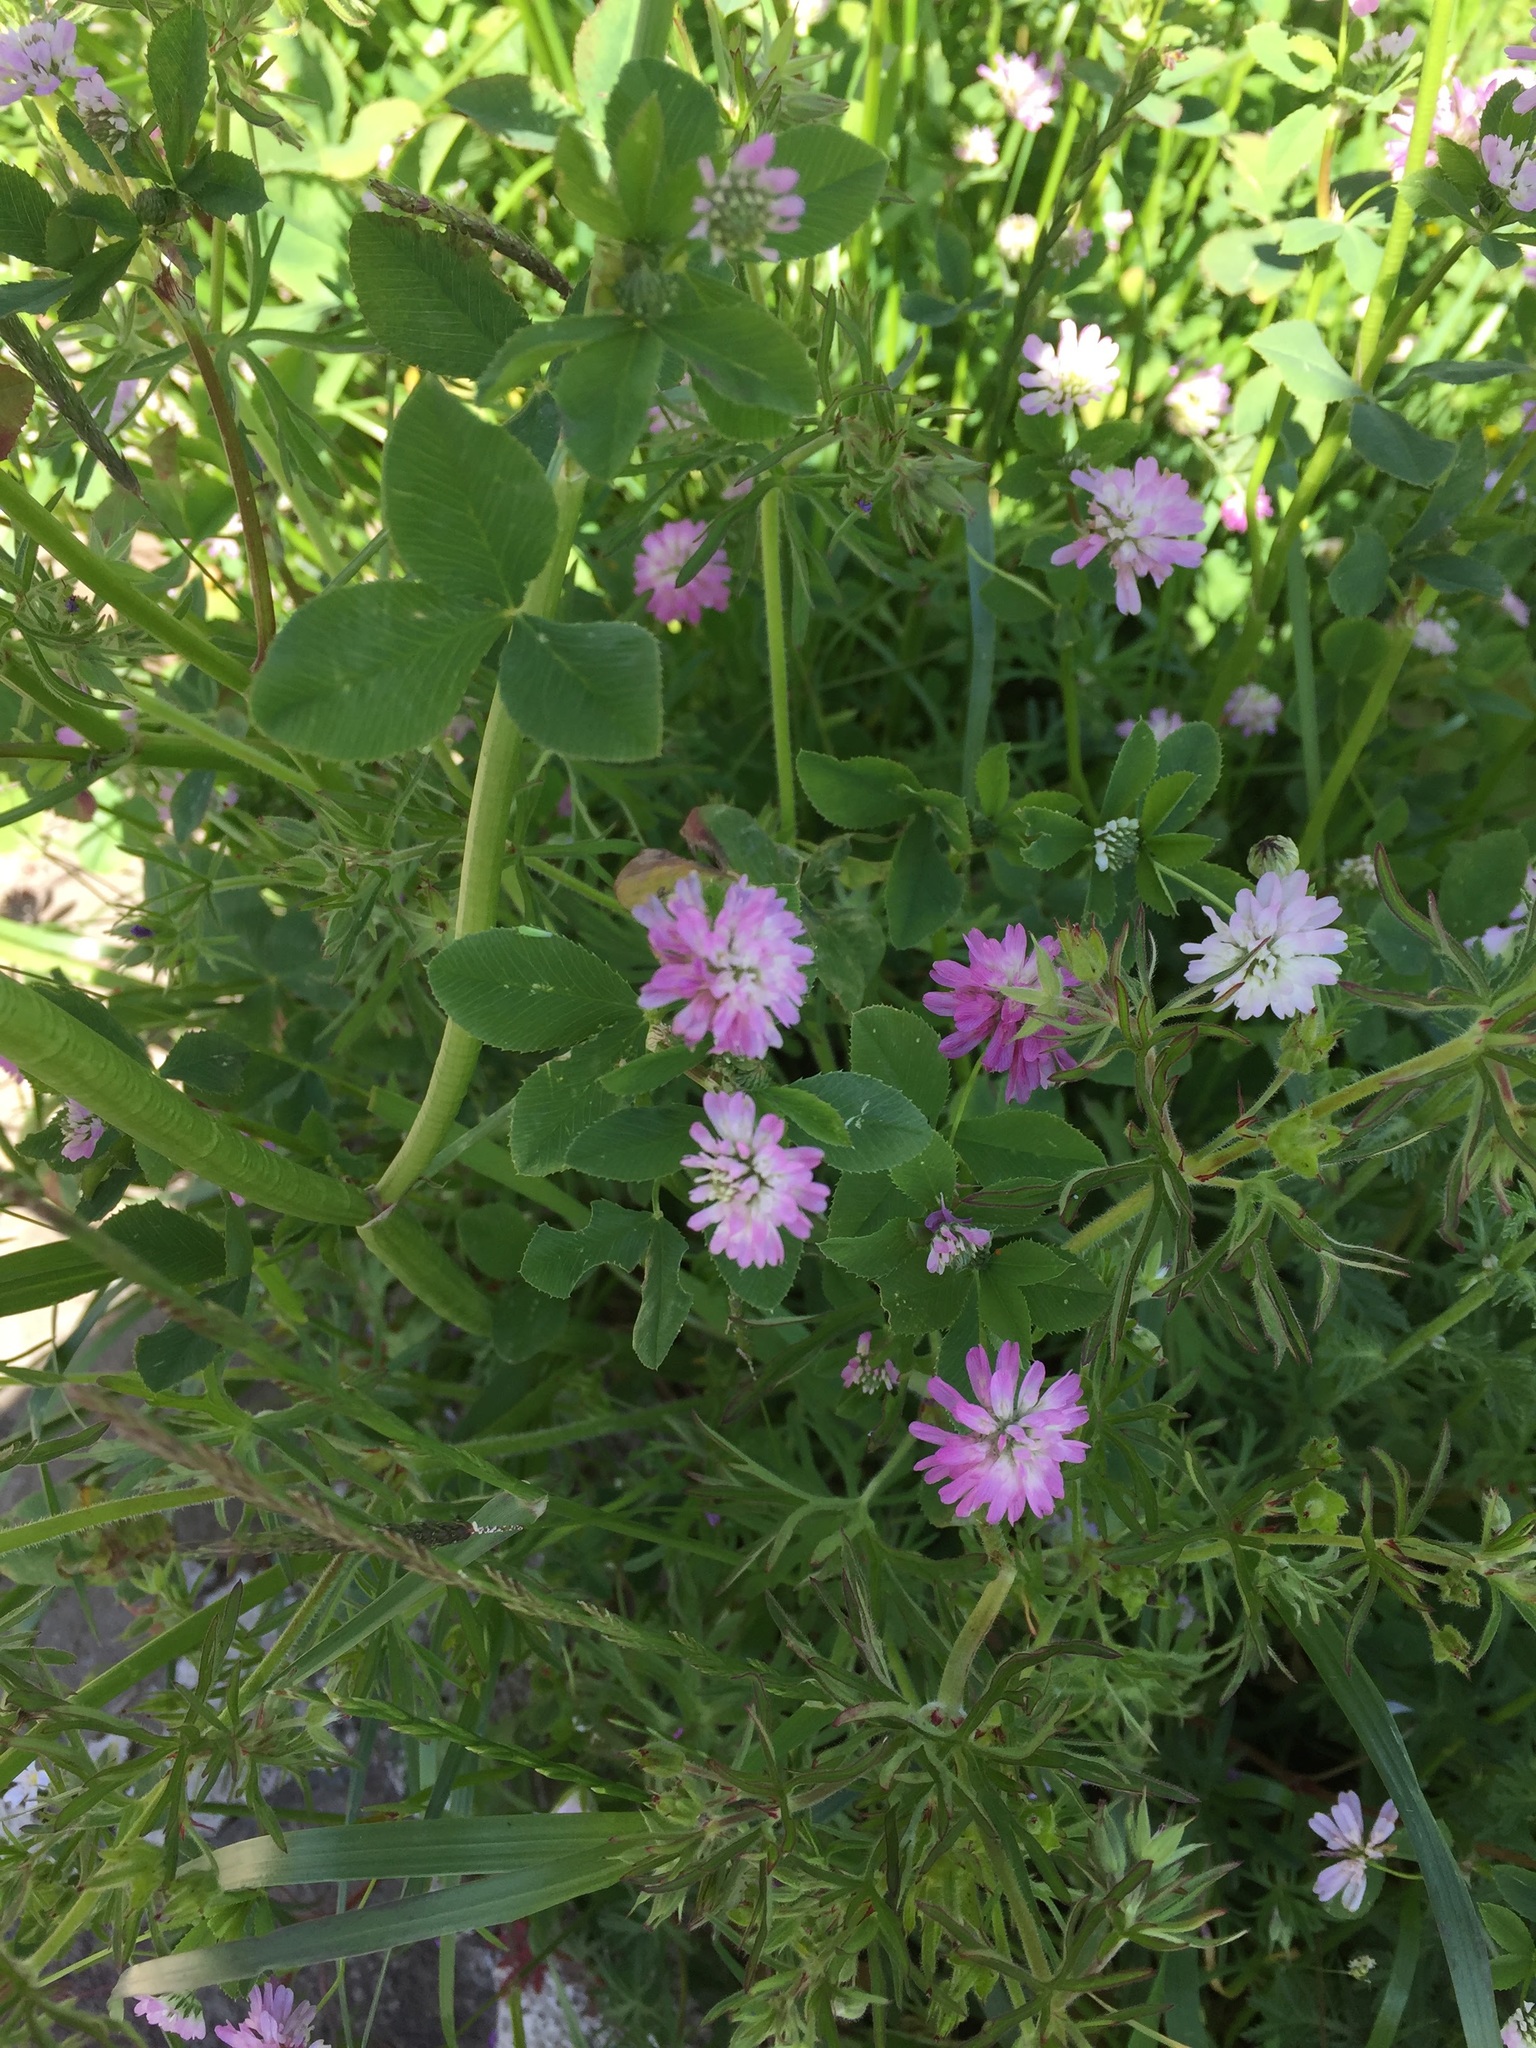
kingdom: Plantae
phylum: Tracheophyta
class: Magnoliopsida
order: Fabales
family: Fabaceae
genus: Trifolium
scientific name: Trifolium resupinatum
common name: Reversed clover
